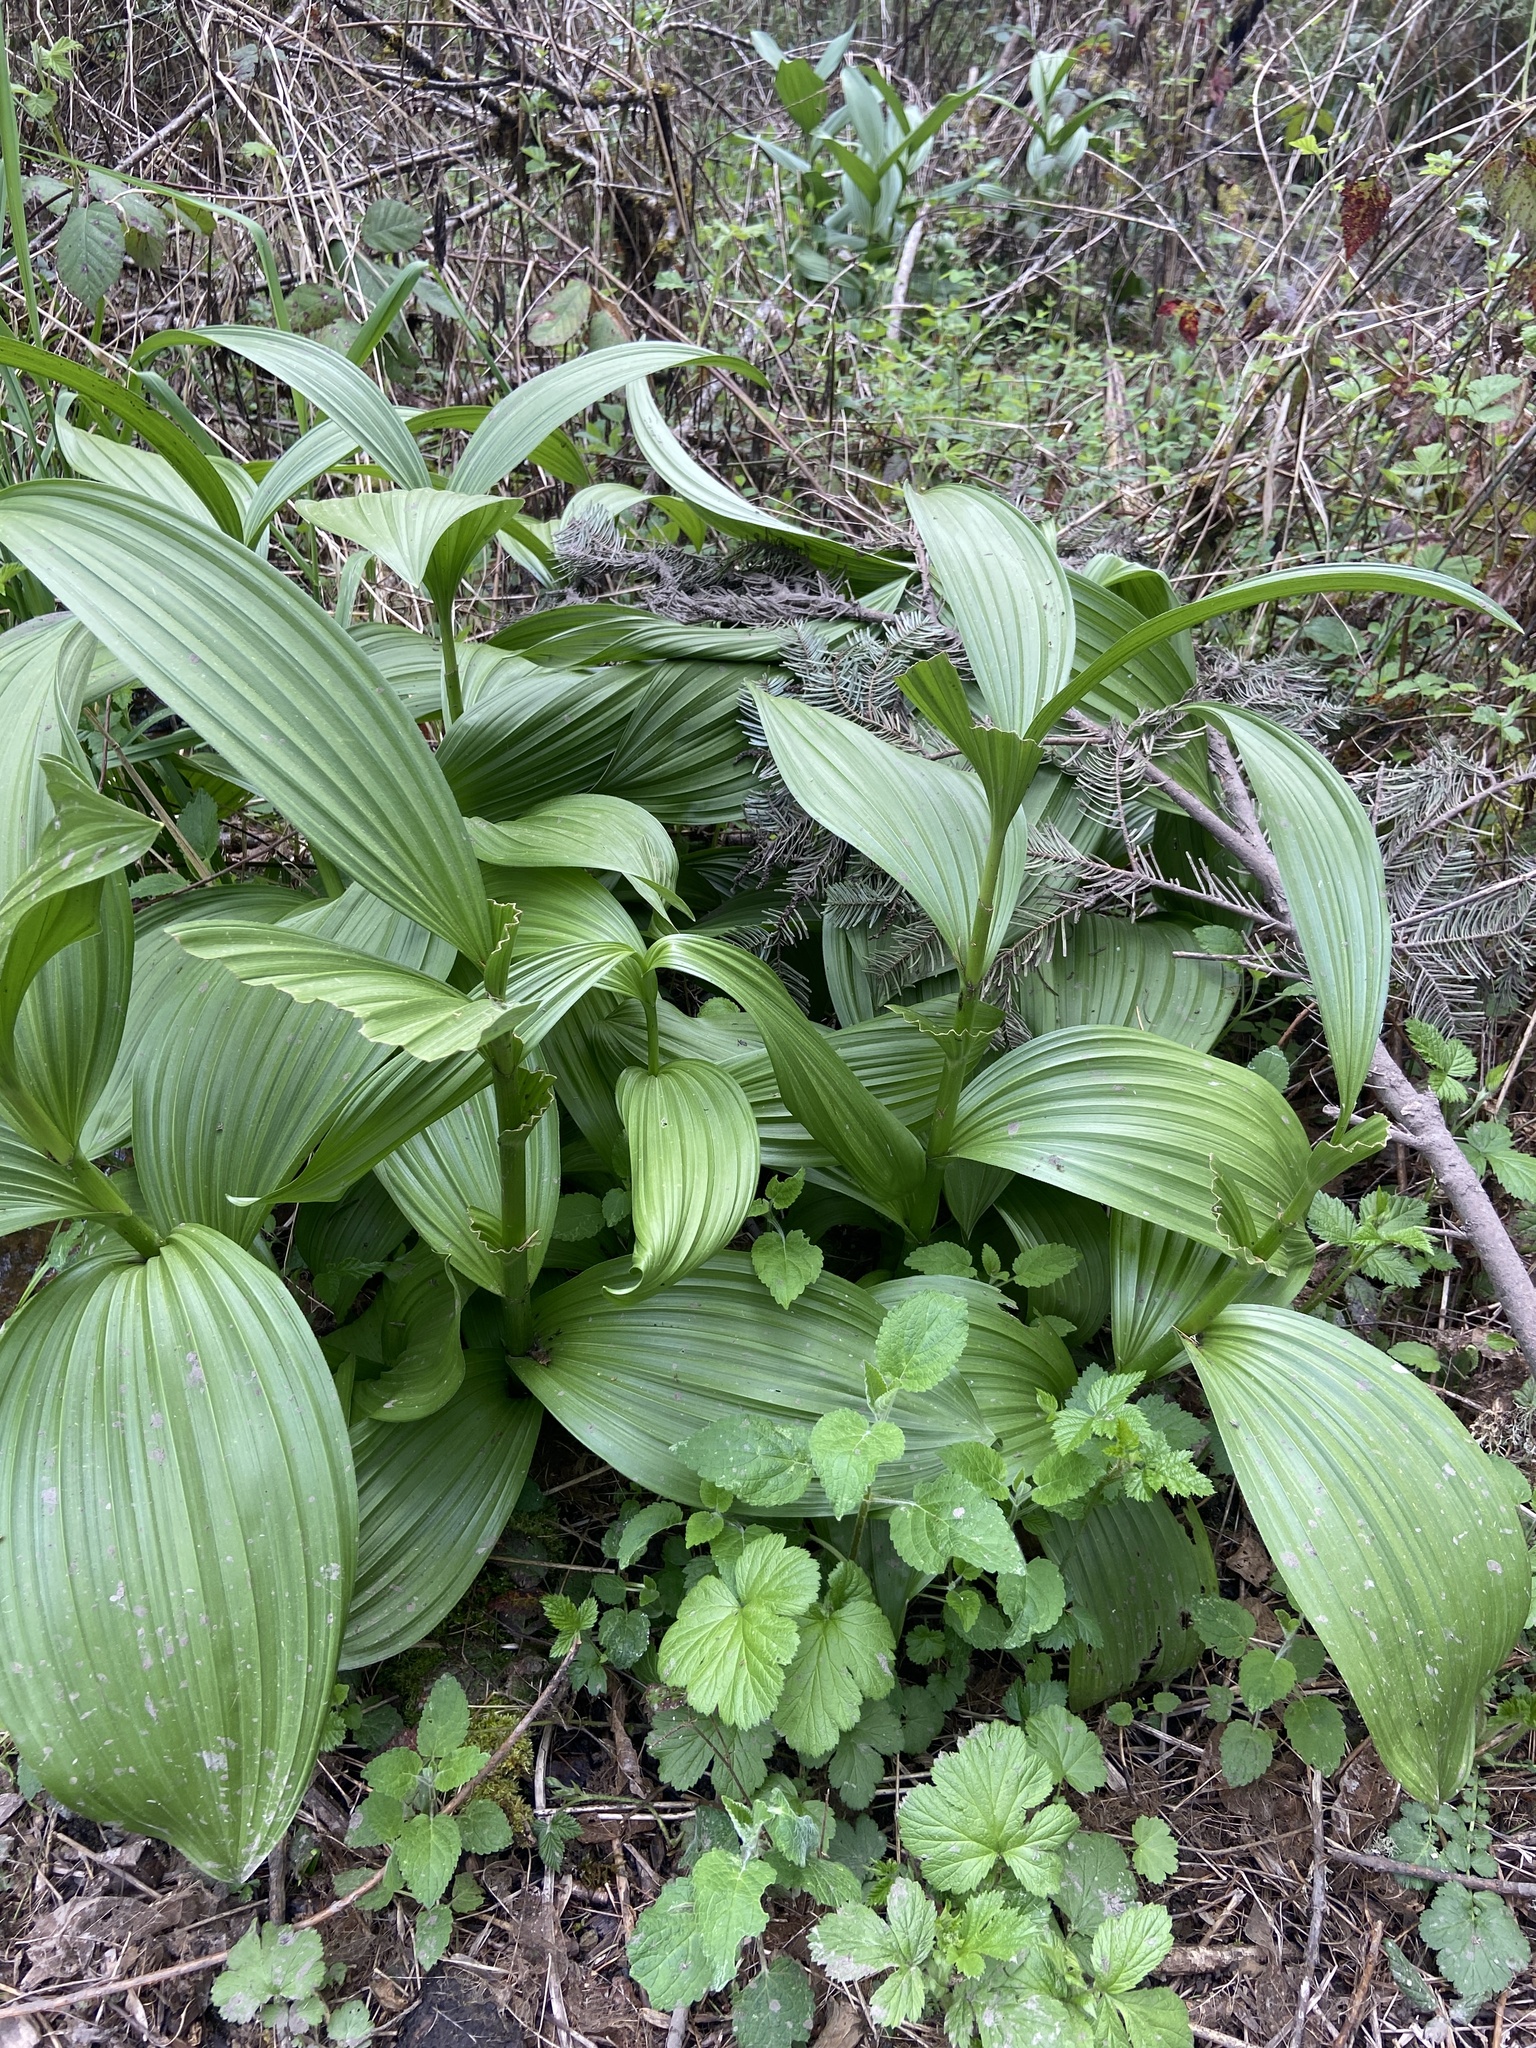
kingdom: Plantae
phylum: Tracheophyta
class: Liliopsida
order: Liliales
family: Melanthiaceae
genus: Veratrum
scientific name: Veratrum californicum
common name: California veratrum
